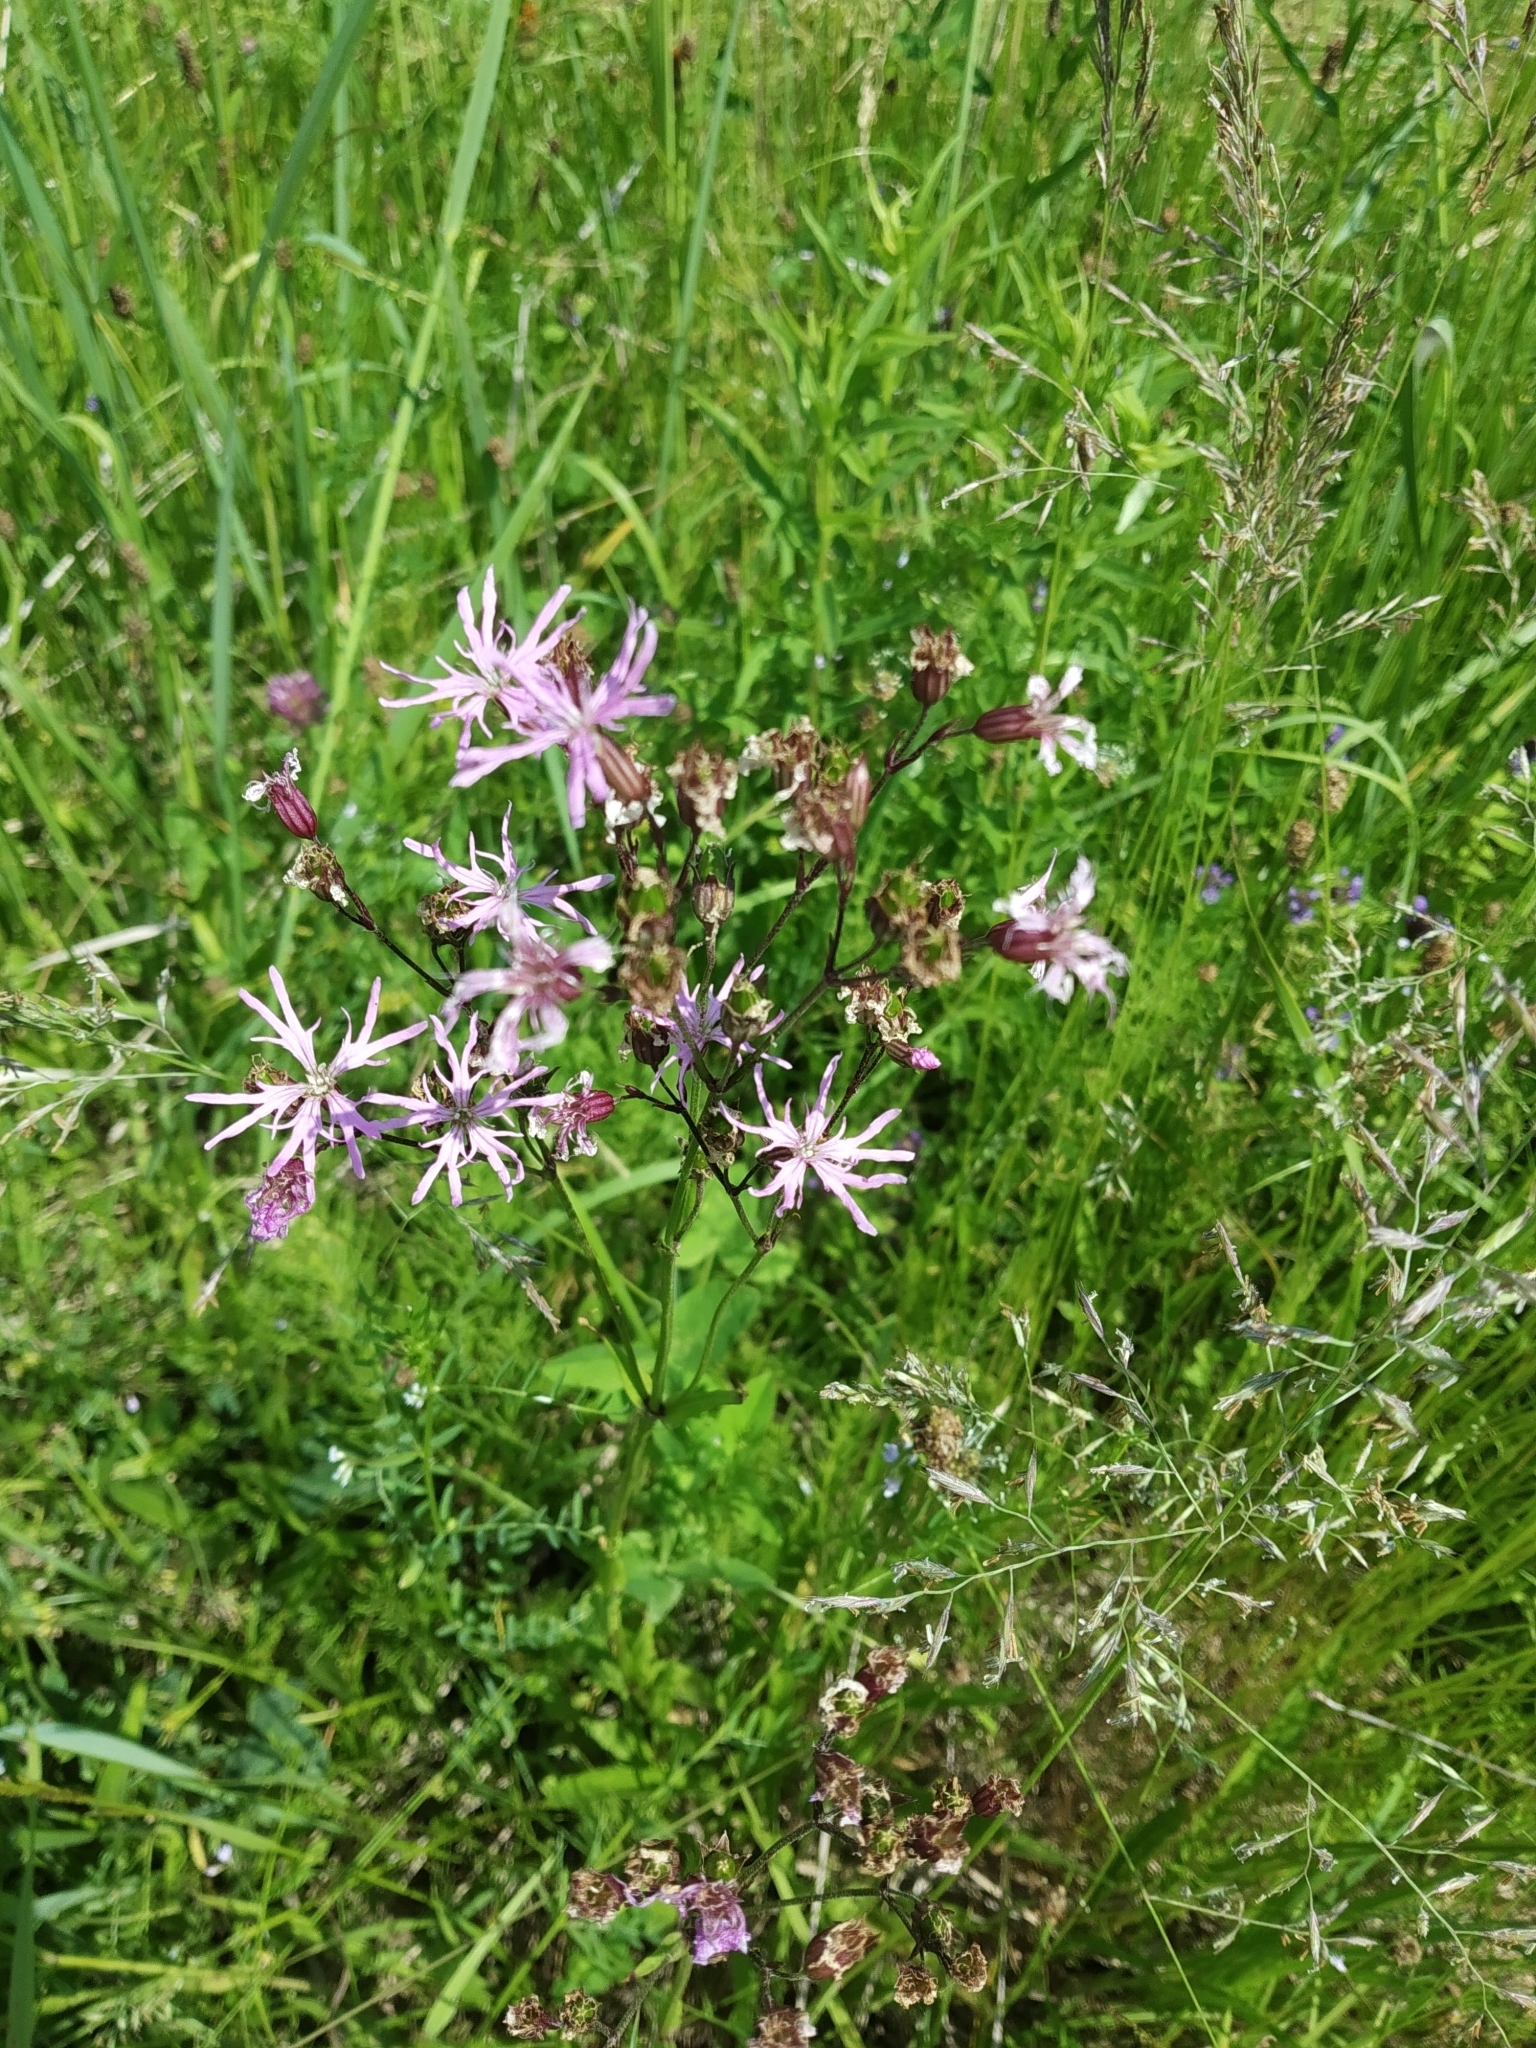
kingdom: Plantae
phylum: Tracheophyta
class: Magnoliopsida
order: Caryophyllales
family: Caryophyllaceae
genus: Silene
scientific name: Silene flos-cuculi
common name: Ragged-robin
